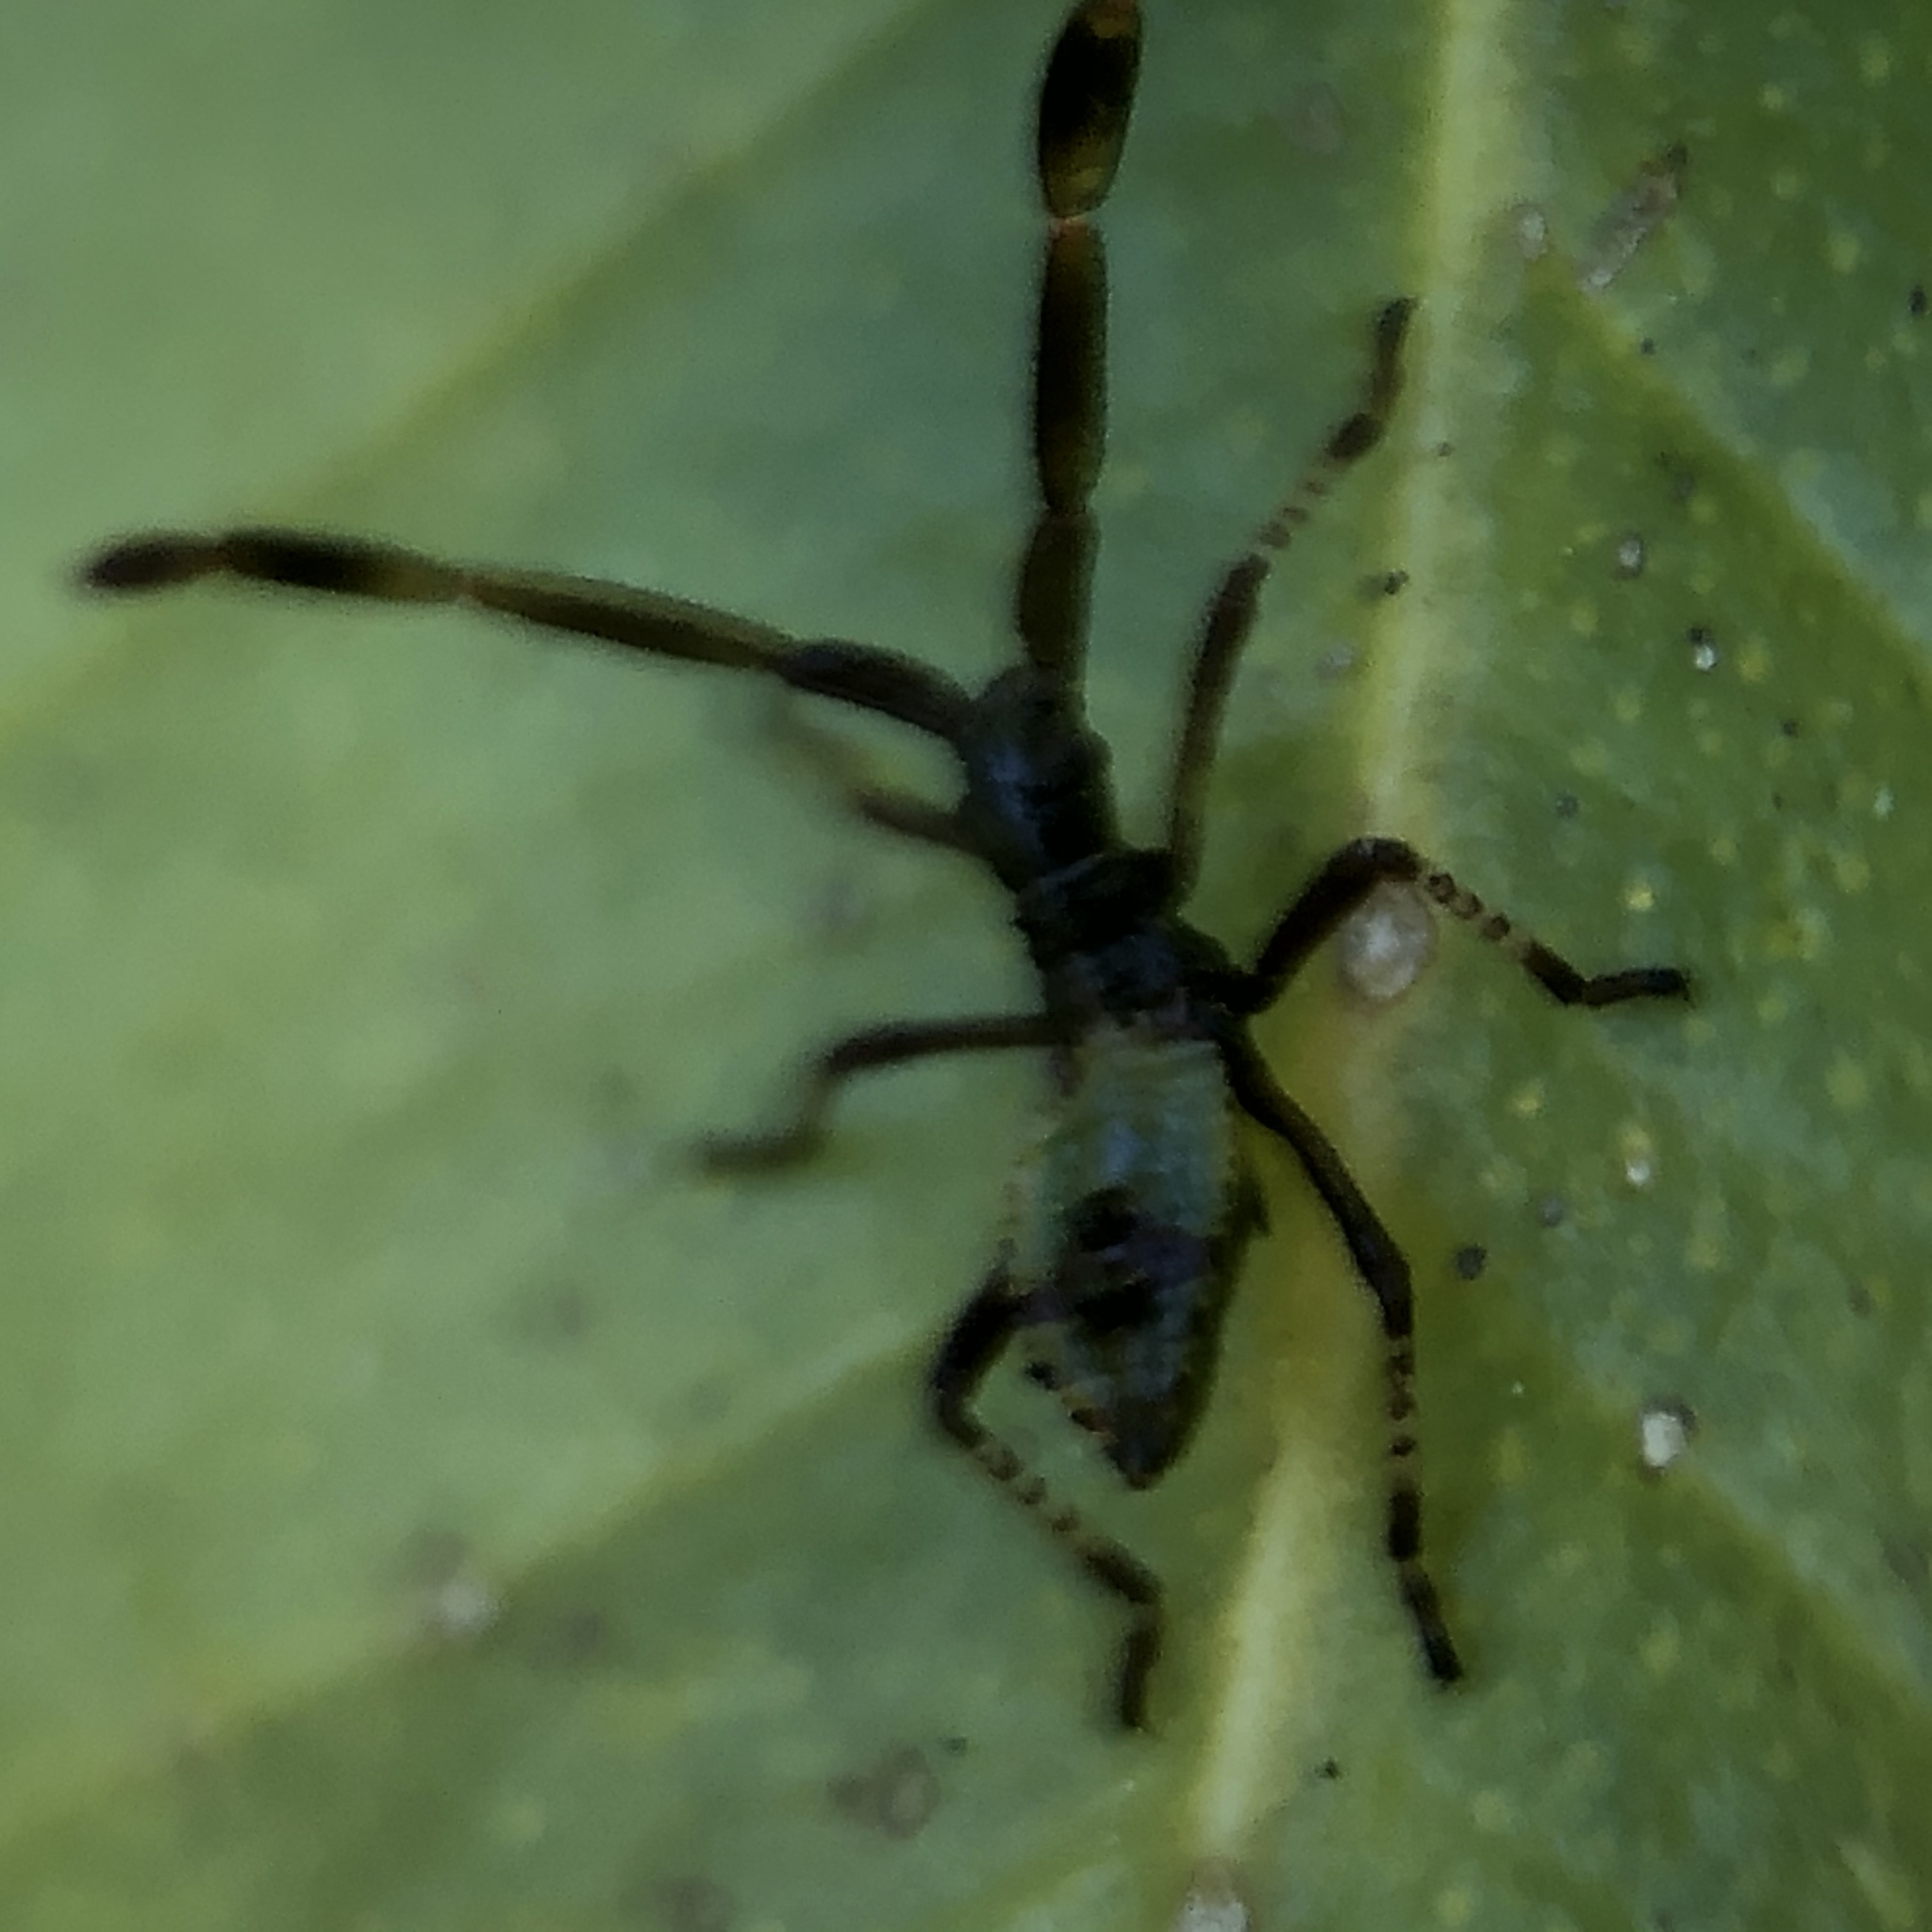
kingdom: Animalia
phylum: Arthropoda
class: Insecta
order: Hemiptera
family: Coreidae
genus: Gonocerus
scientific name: Gonocerus acuteangulatus
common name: Box bug
